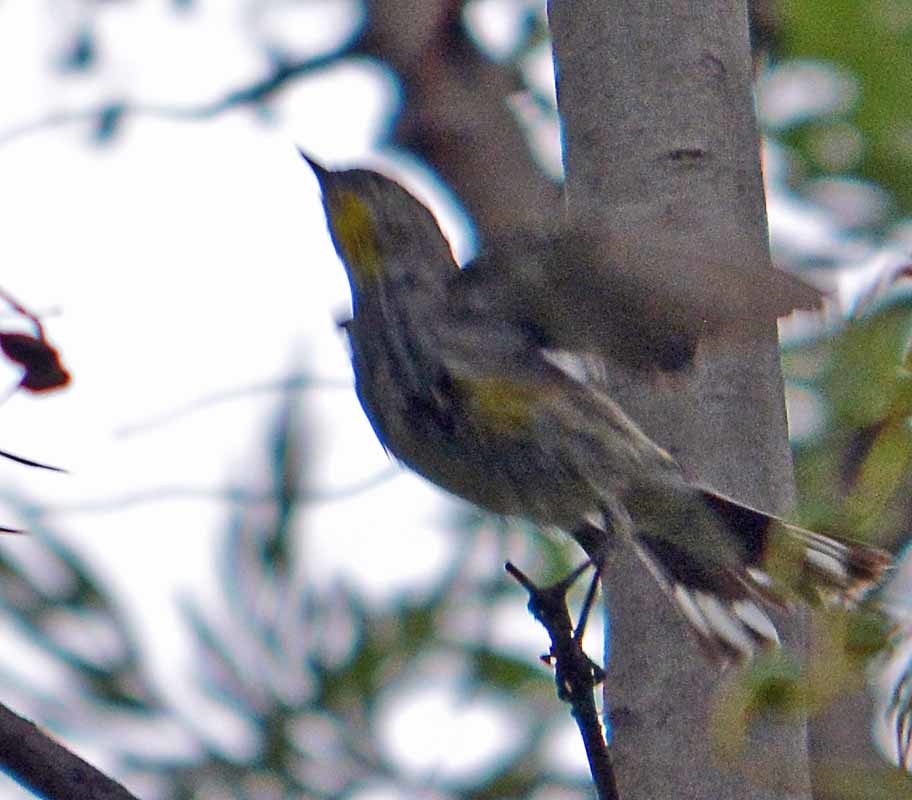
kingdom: Animalia
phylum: Chordata
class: Aves
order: Passeriformes
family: Parulidae
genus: Setophaga
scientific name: Setophaga coronata
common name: Myrtle warbler
